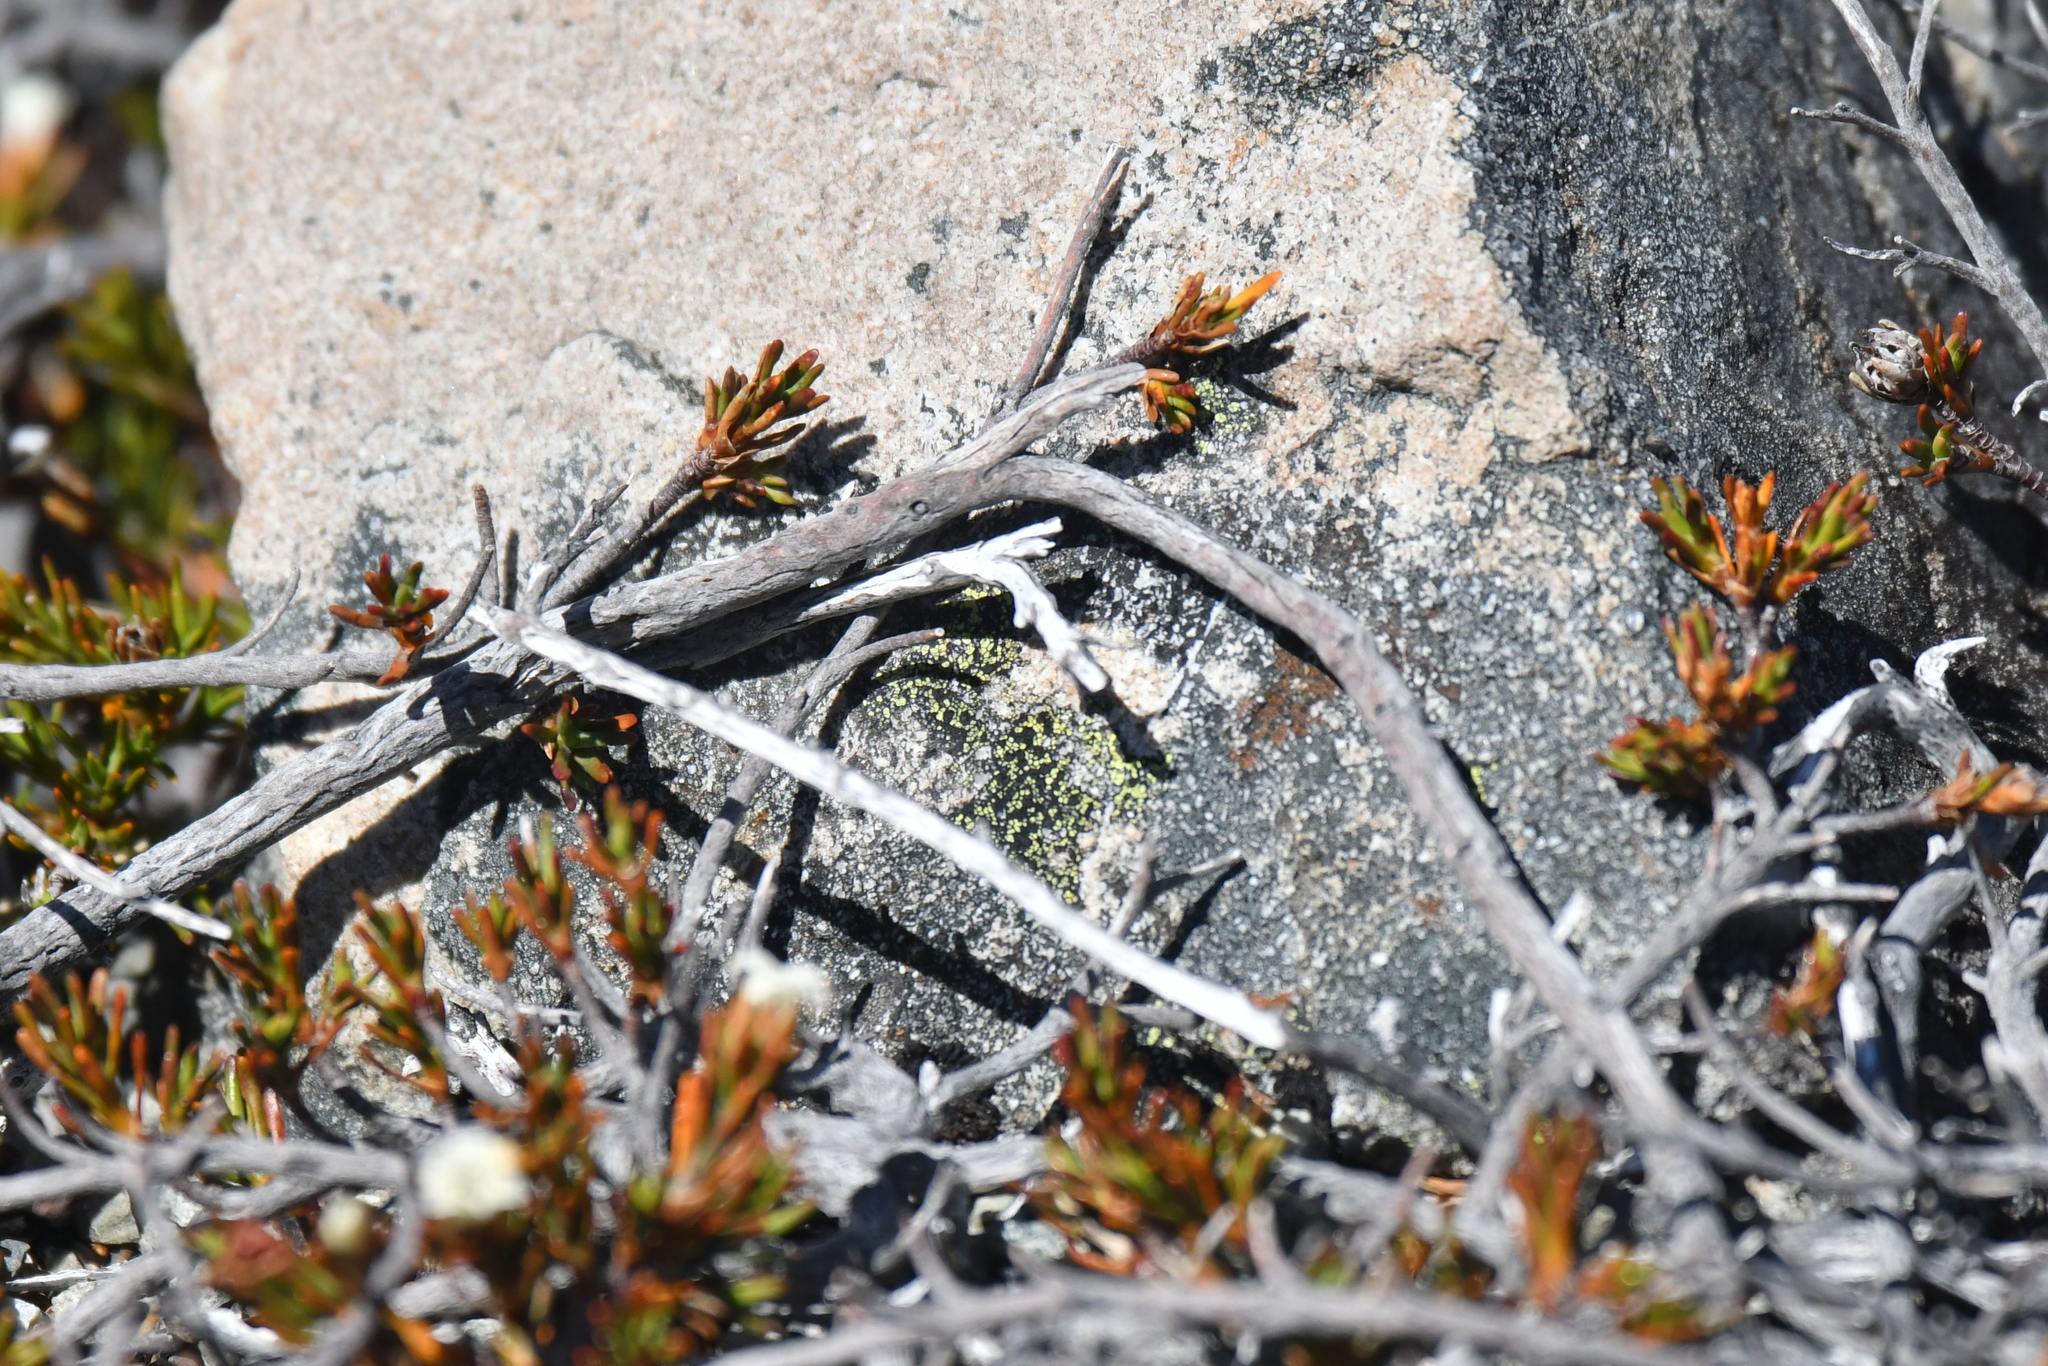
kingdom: Plantae
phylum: Tracheophyta
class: Magnoliopsida
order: Ericales
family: Ericaceae
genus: Dracophyllum
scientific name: Dracophyllum pronum
